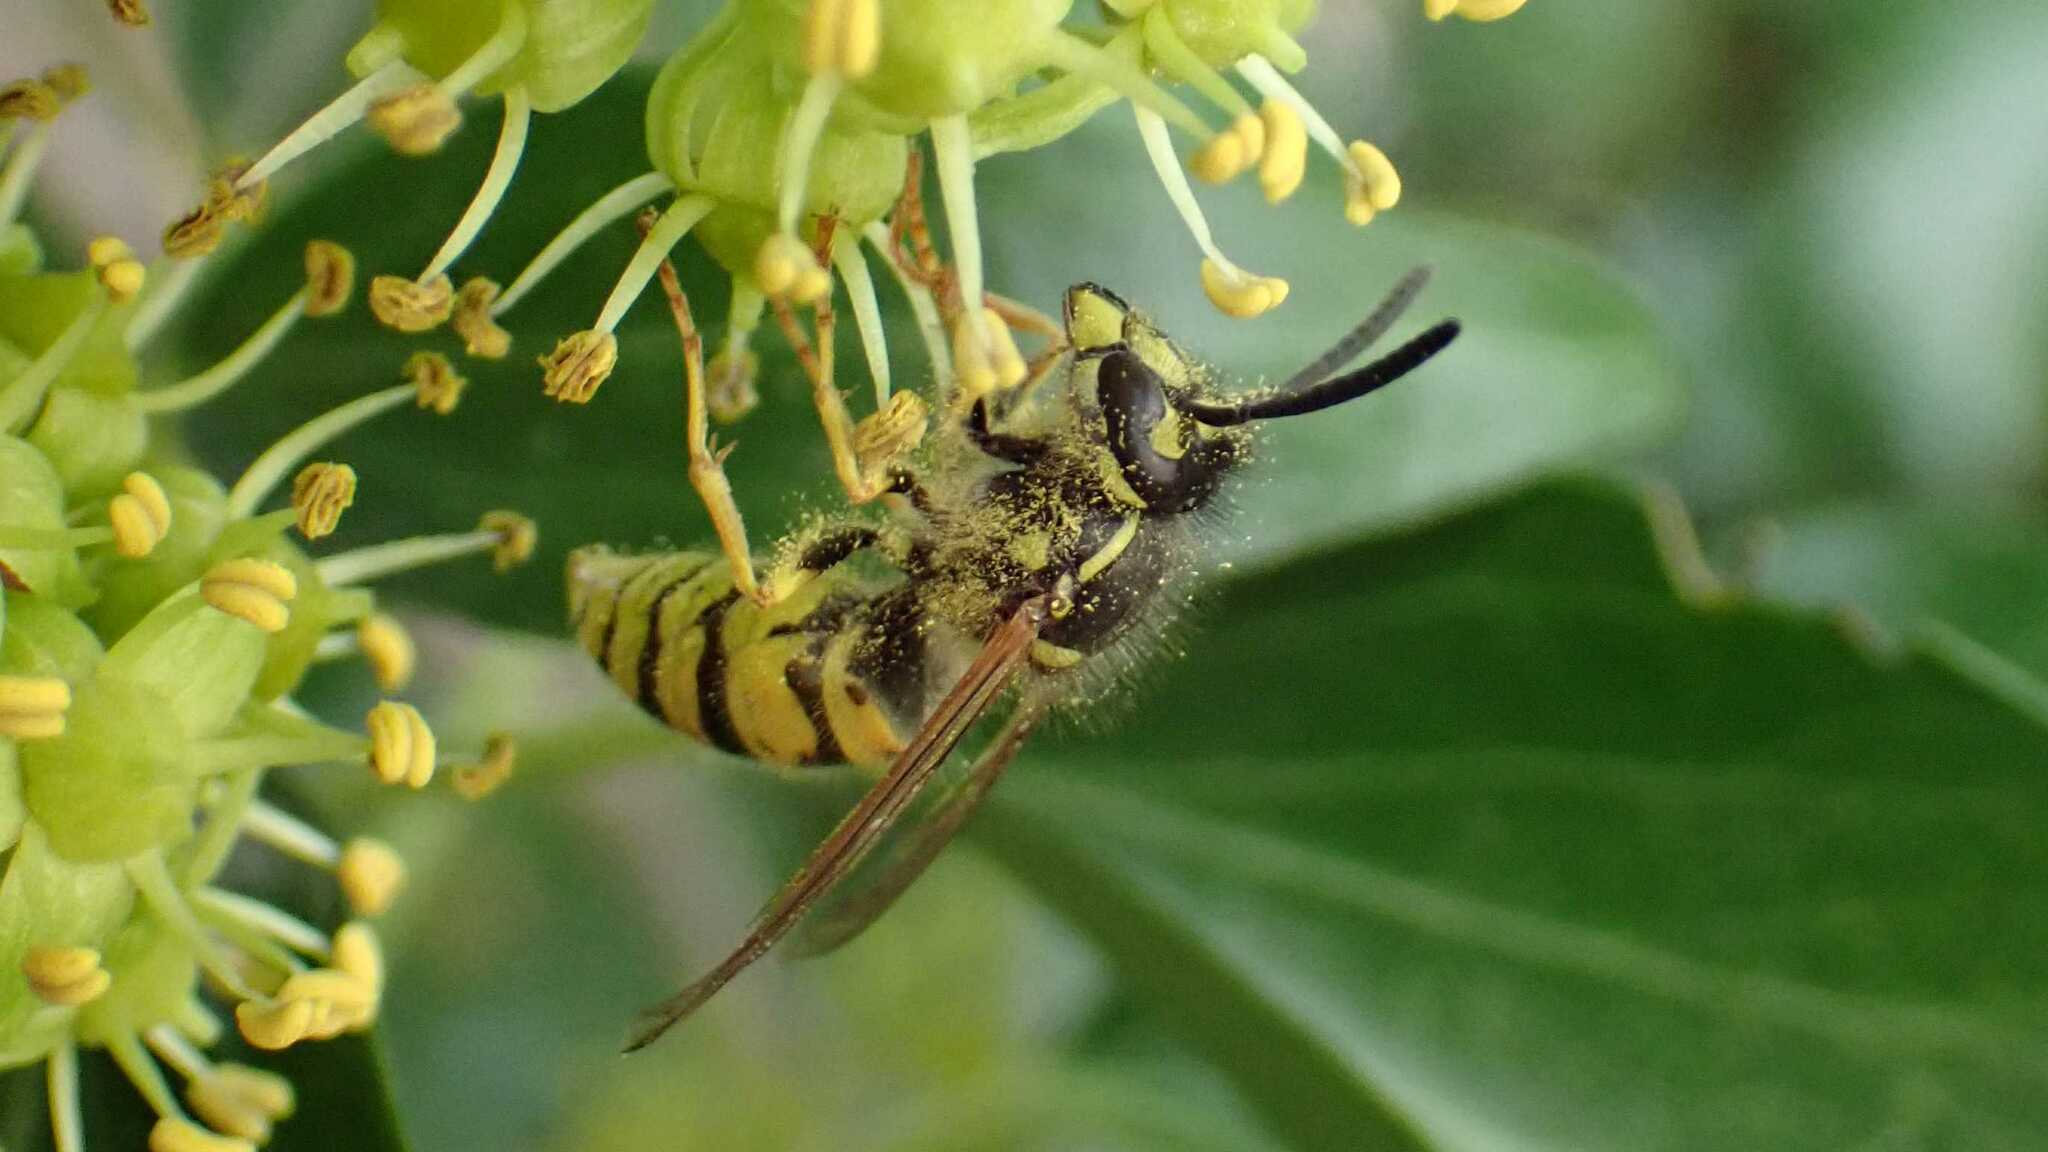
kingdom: Animalia
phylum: Arthropoda
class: Insecta
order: Hymenoptera
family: Vespidae
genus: Vespula
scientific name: Vespula vulgaris
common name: Common wasp
